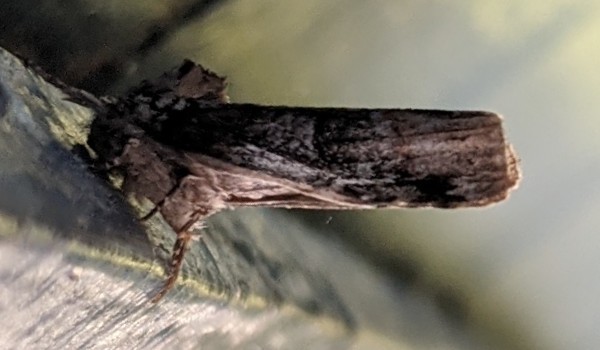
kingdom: Animalia
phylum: Arthropoda
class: Insecta
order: Lepidoptera
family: Notodontidae
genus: Schizura
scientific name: Schizura
